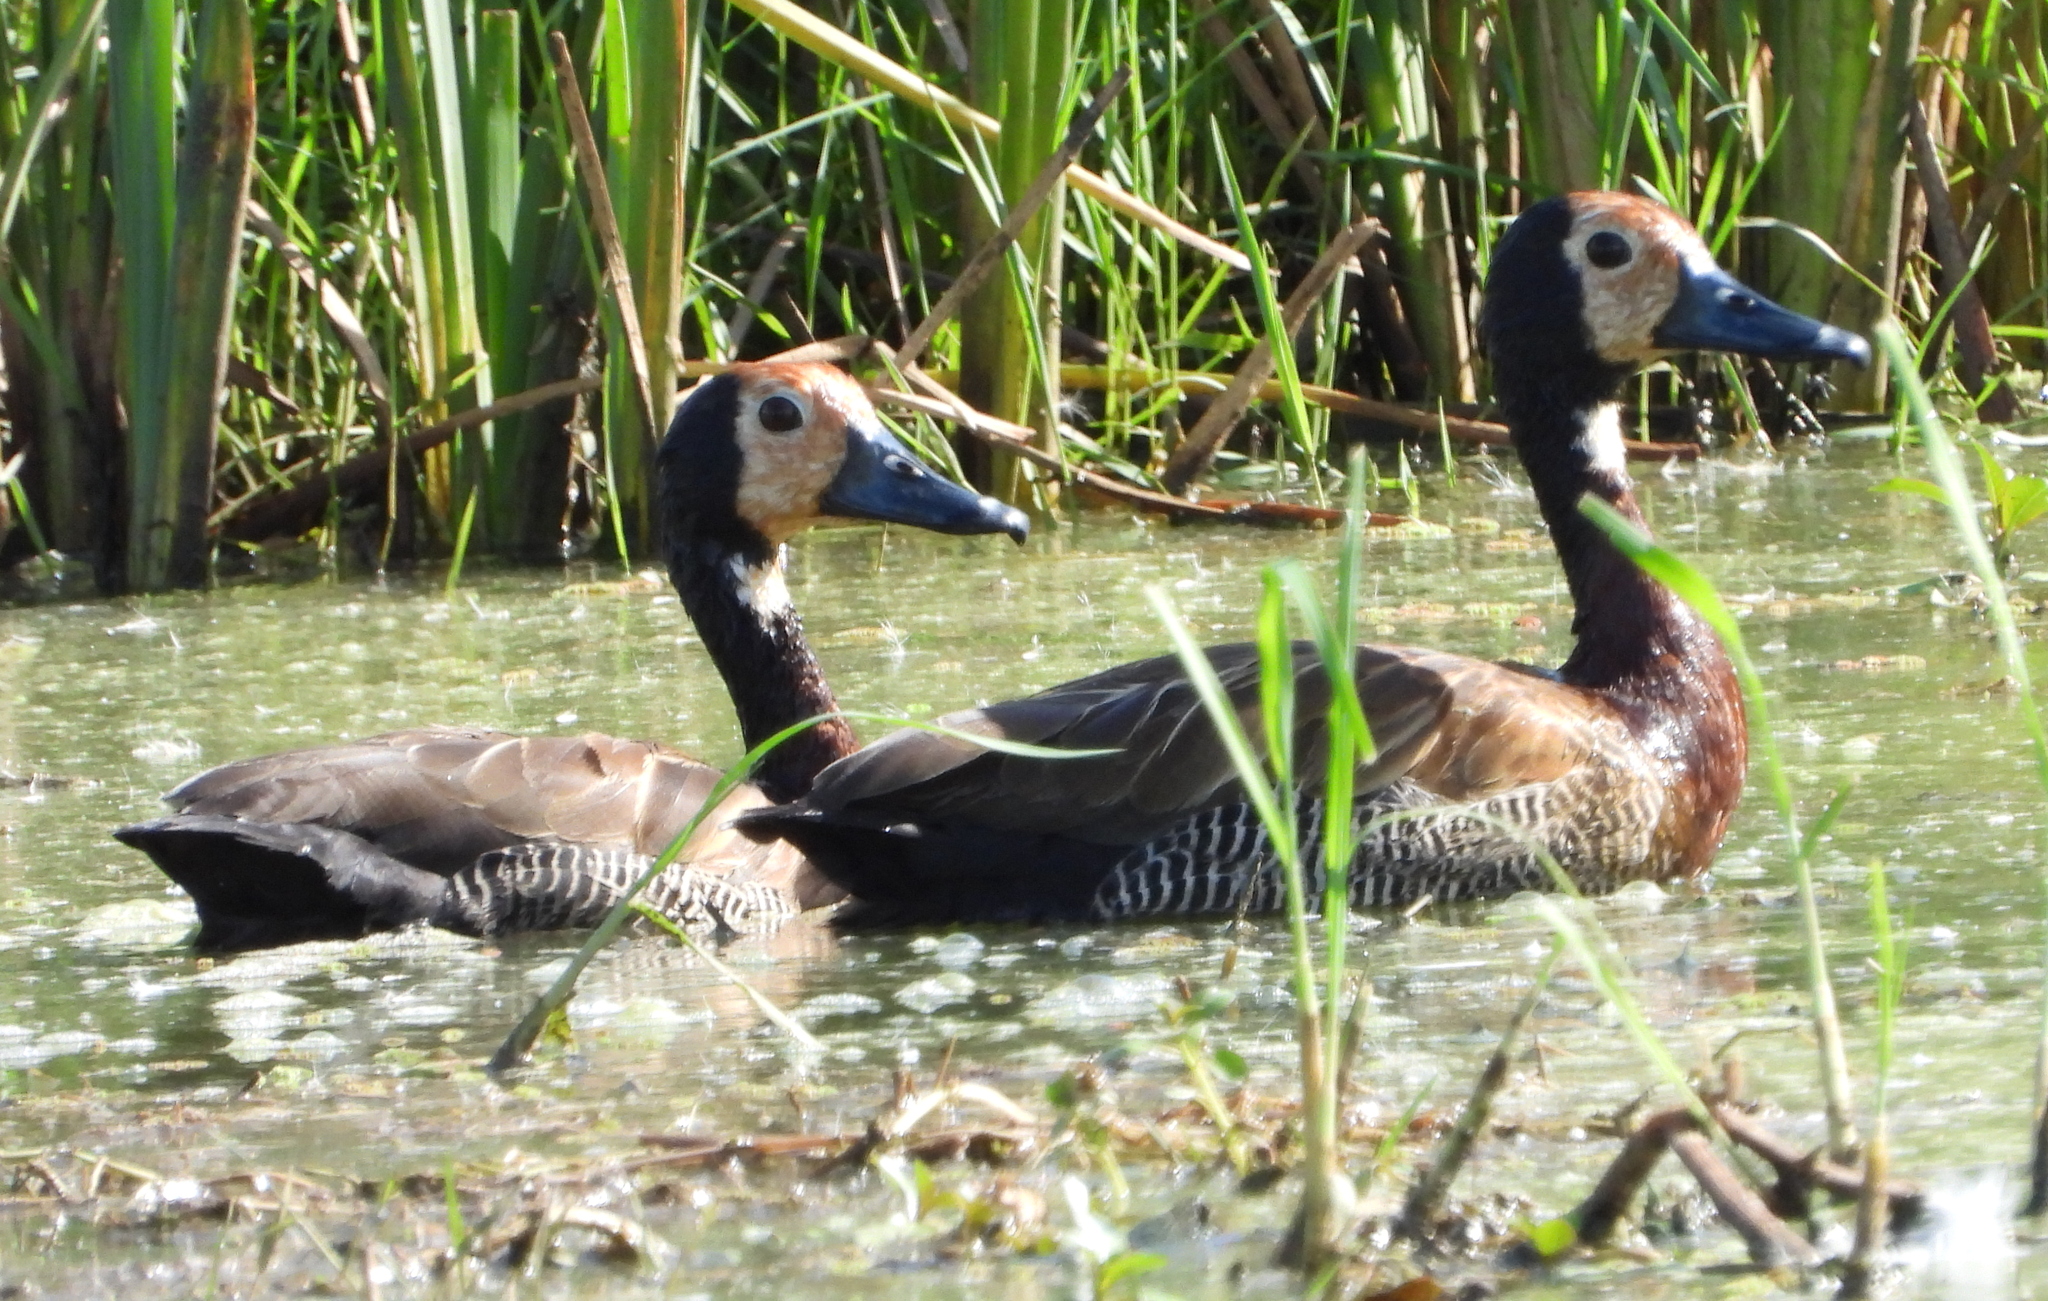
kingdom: Animalia
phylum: Chordata
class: Aves
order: Anseriformes
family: Anatidae
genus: Dendrocygna
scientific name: Dendrocygna viduata
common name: White-faced whistling duck
